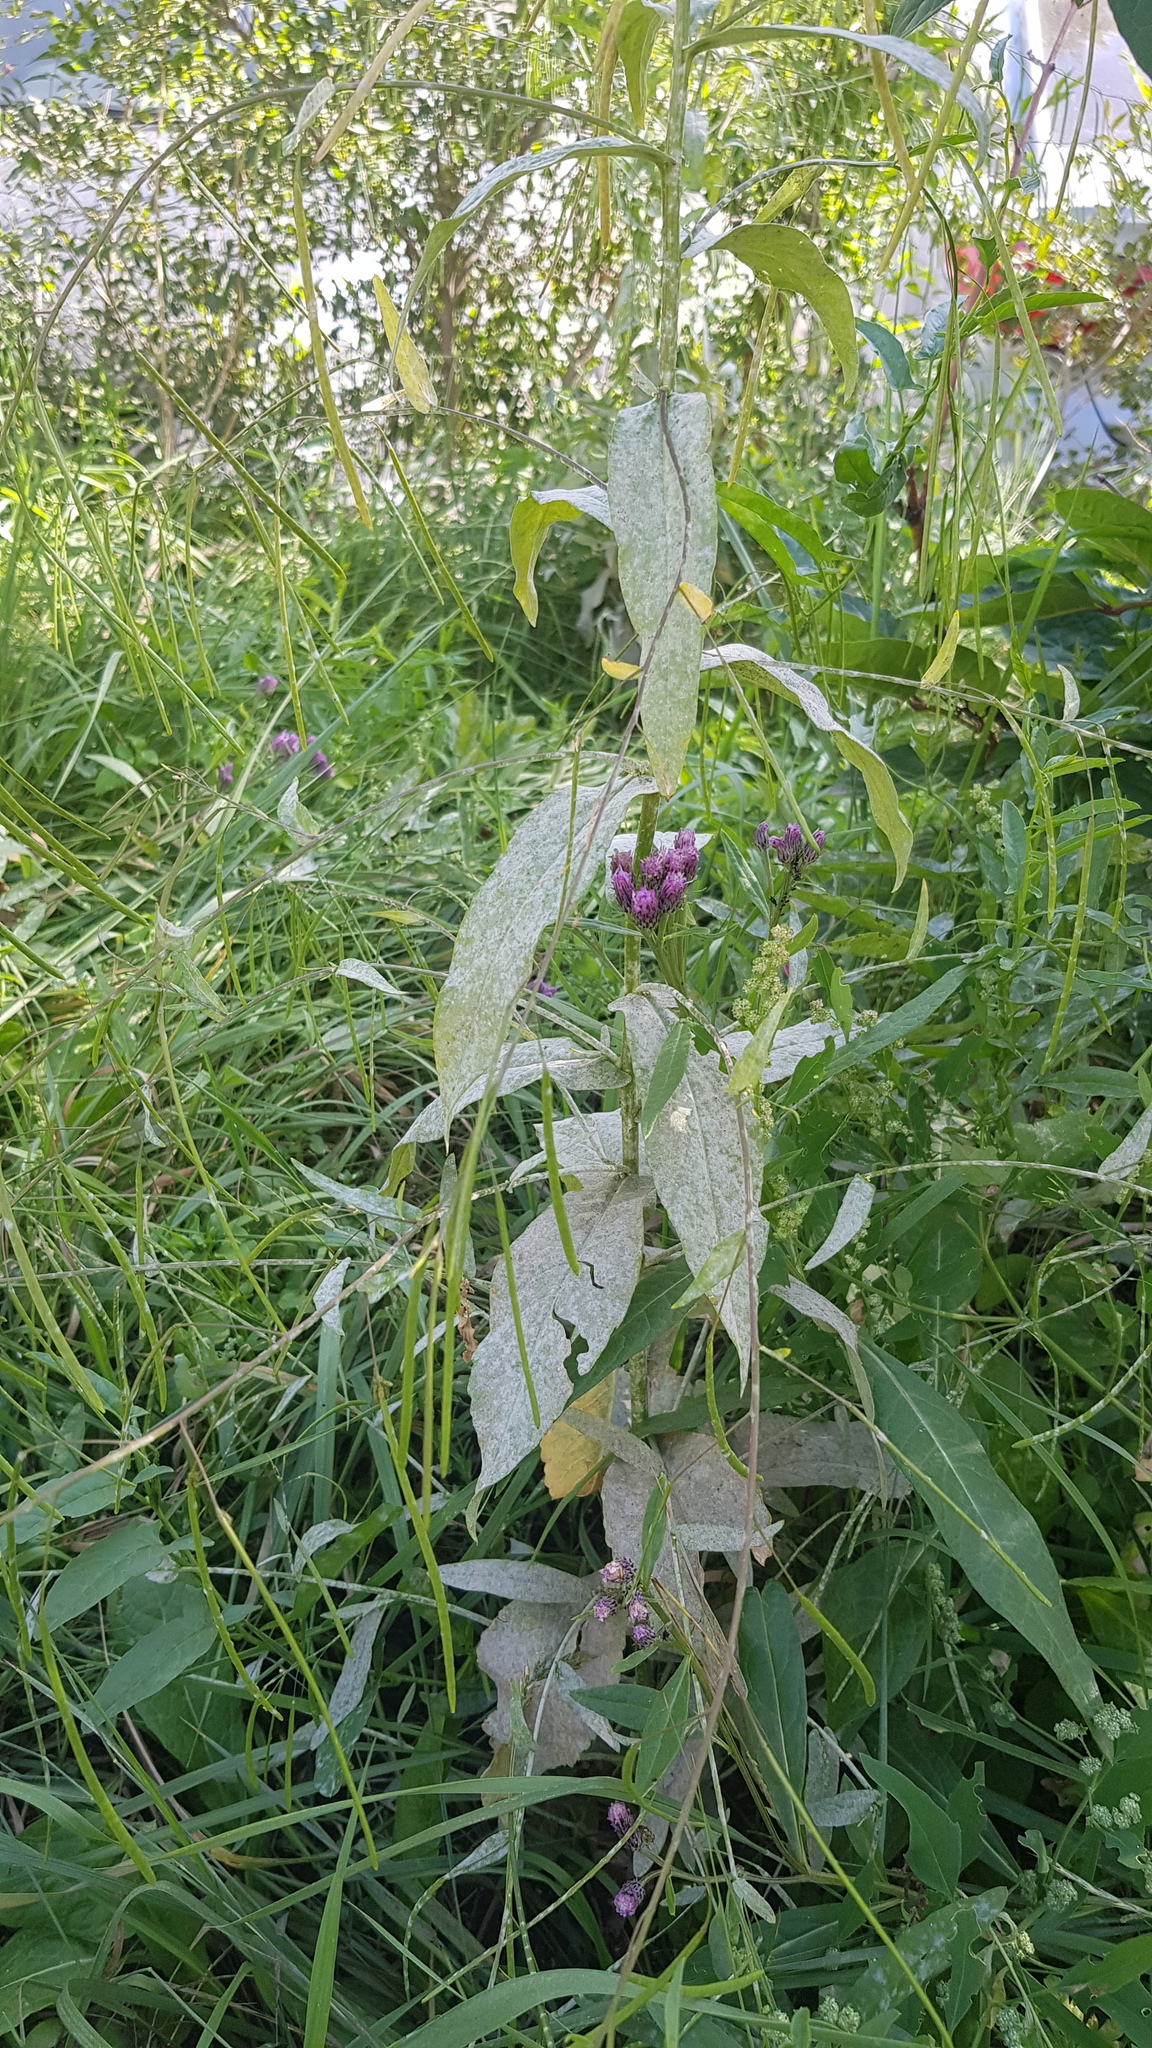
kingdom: Plantae
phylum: Tracheophyta
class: Magnoliopsida
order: Asterales
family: Asteraceae
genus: Saussurea
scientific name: Saussurea amara
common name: Alberta sawwort
